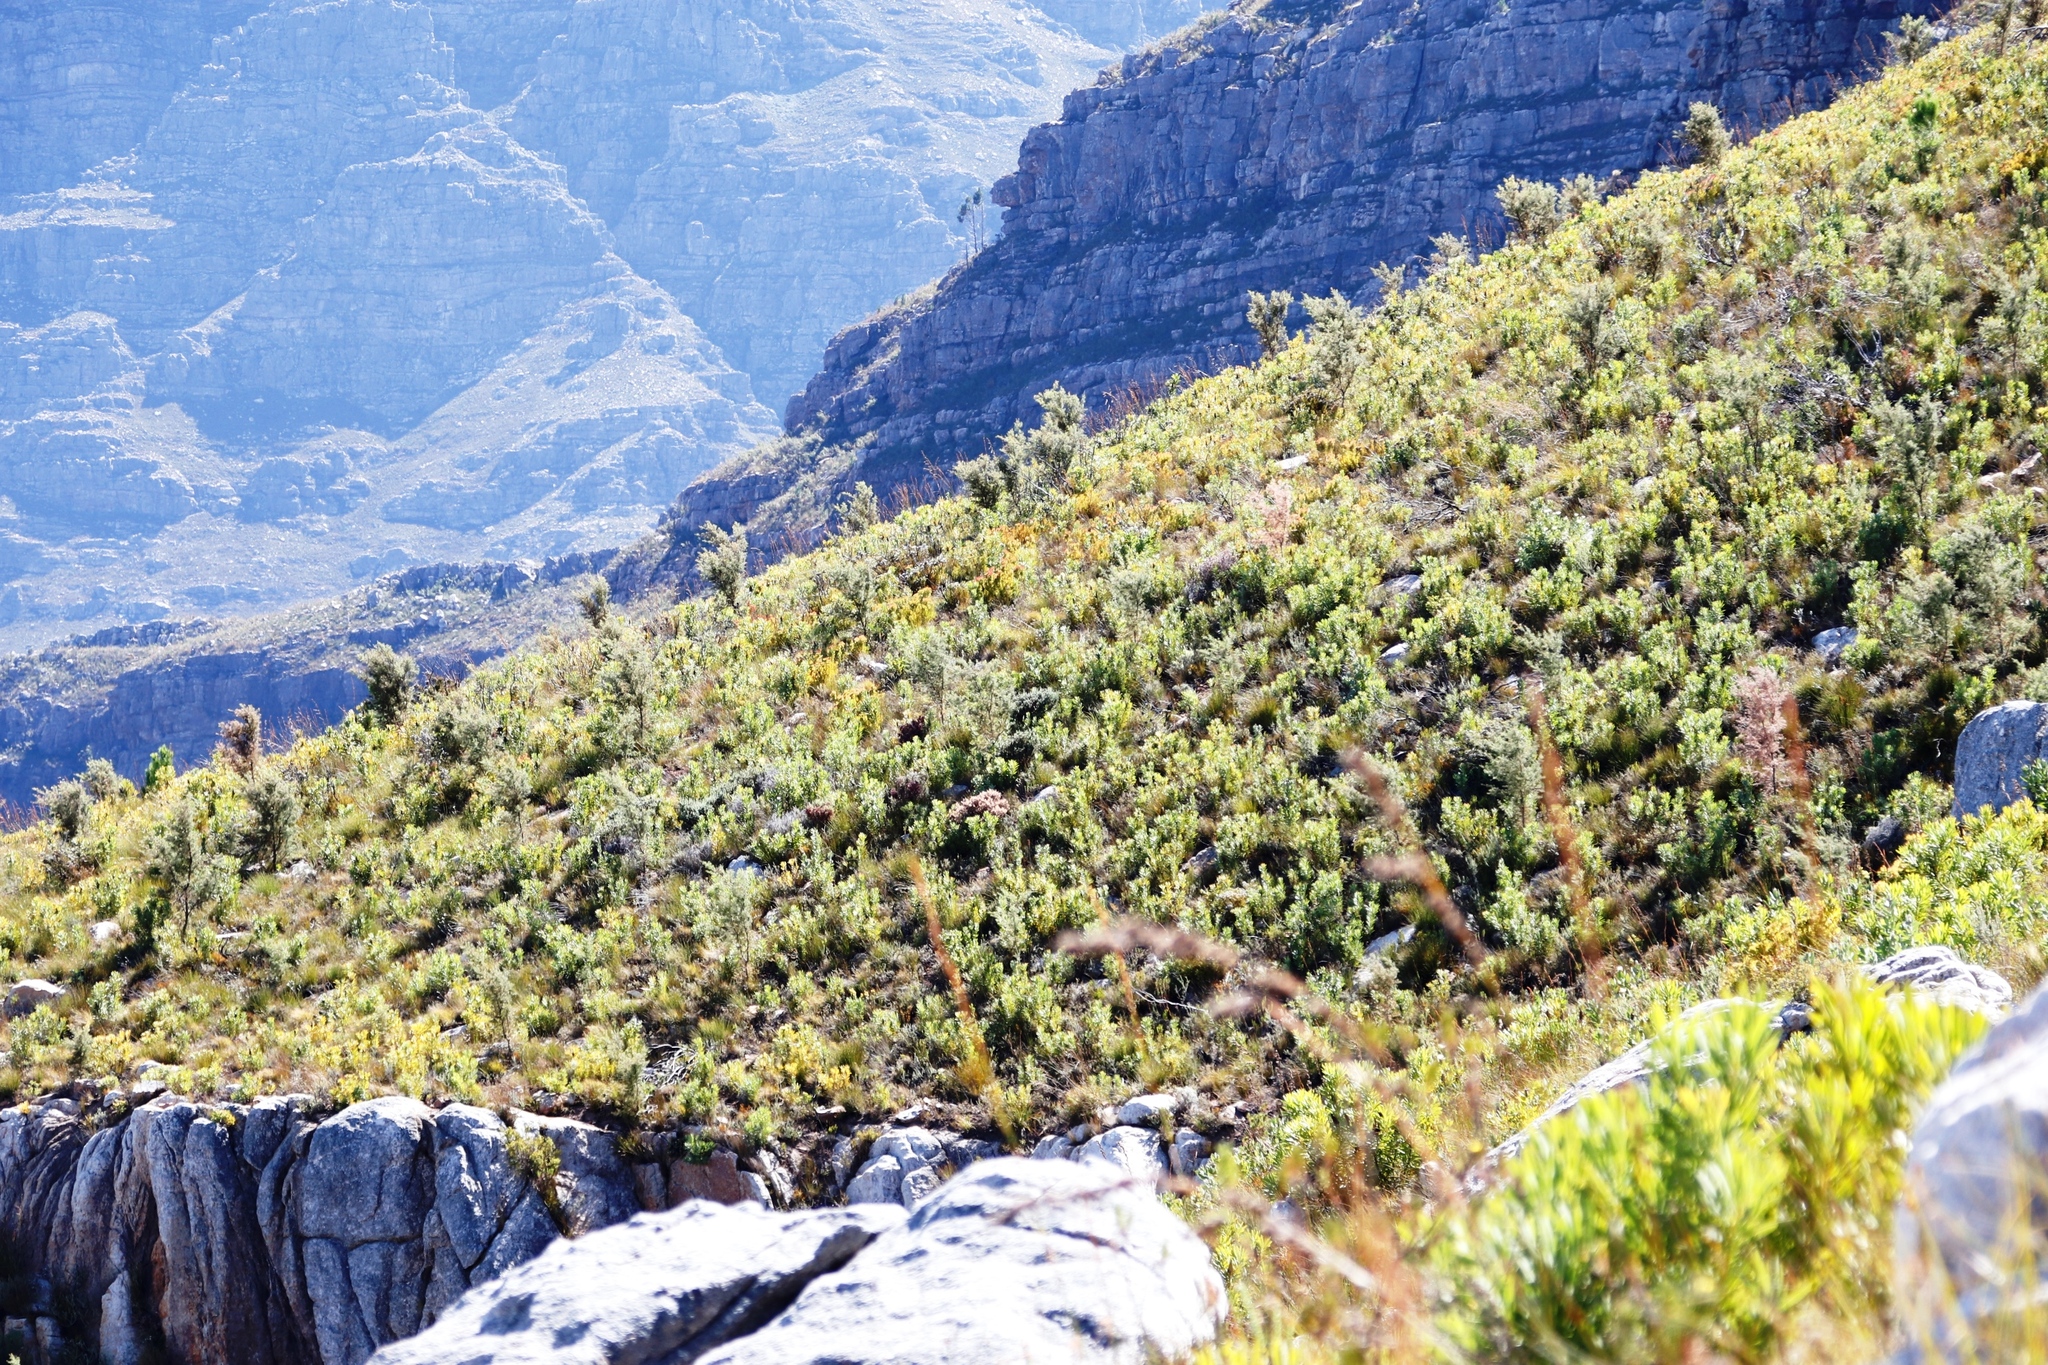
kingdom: Plantae
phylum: Tracheophyta
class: Magnoliopsida
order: Proteales
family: Proteaceae
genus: Hakea
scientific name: Hakea sericea
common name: Needle bush
